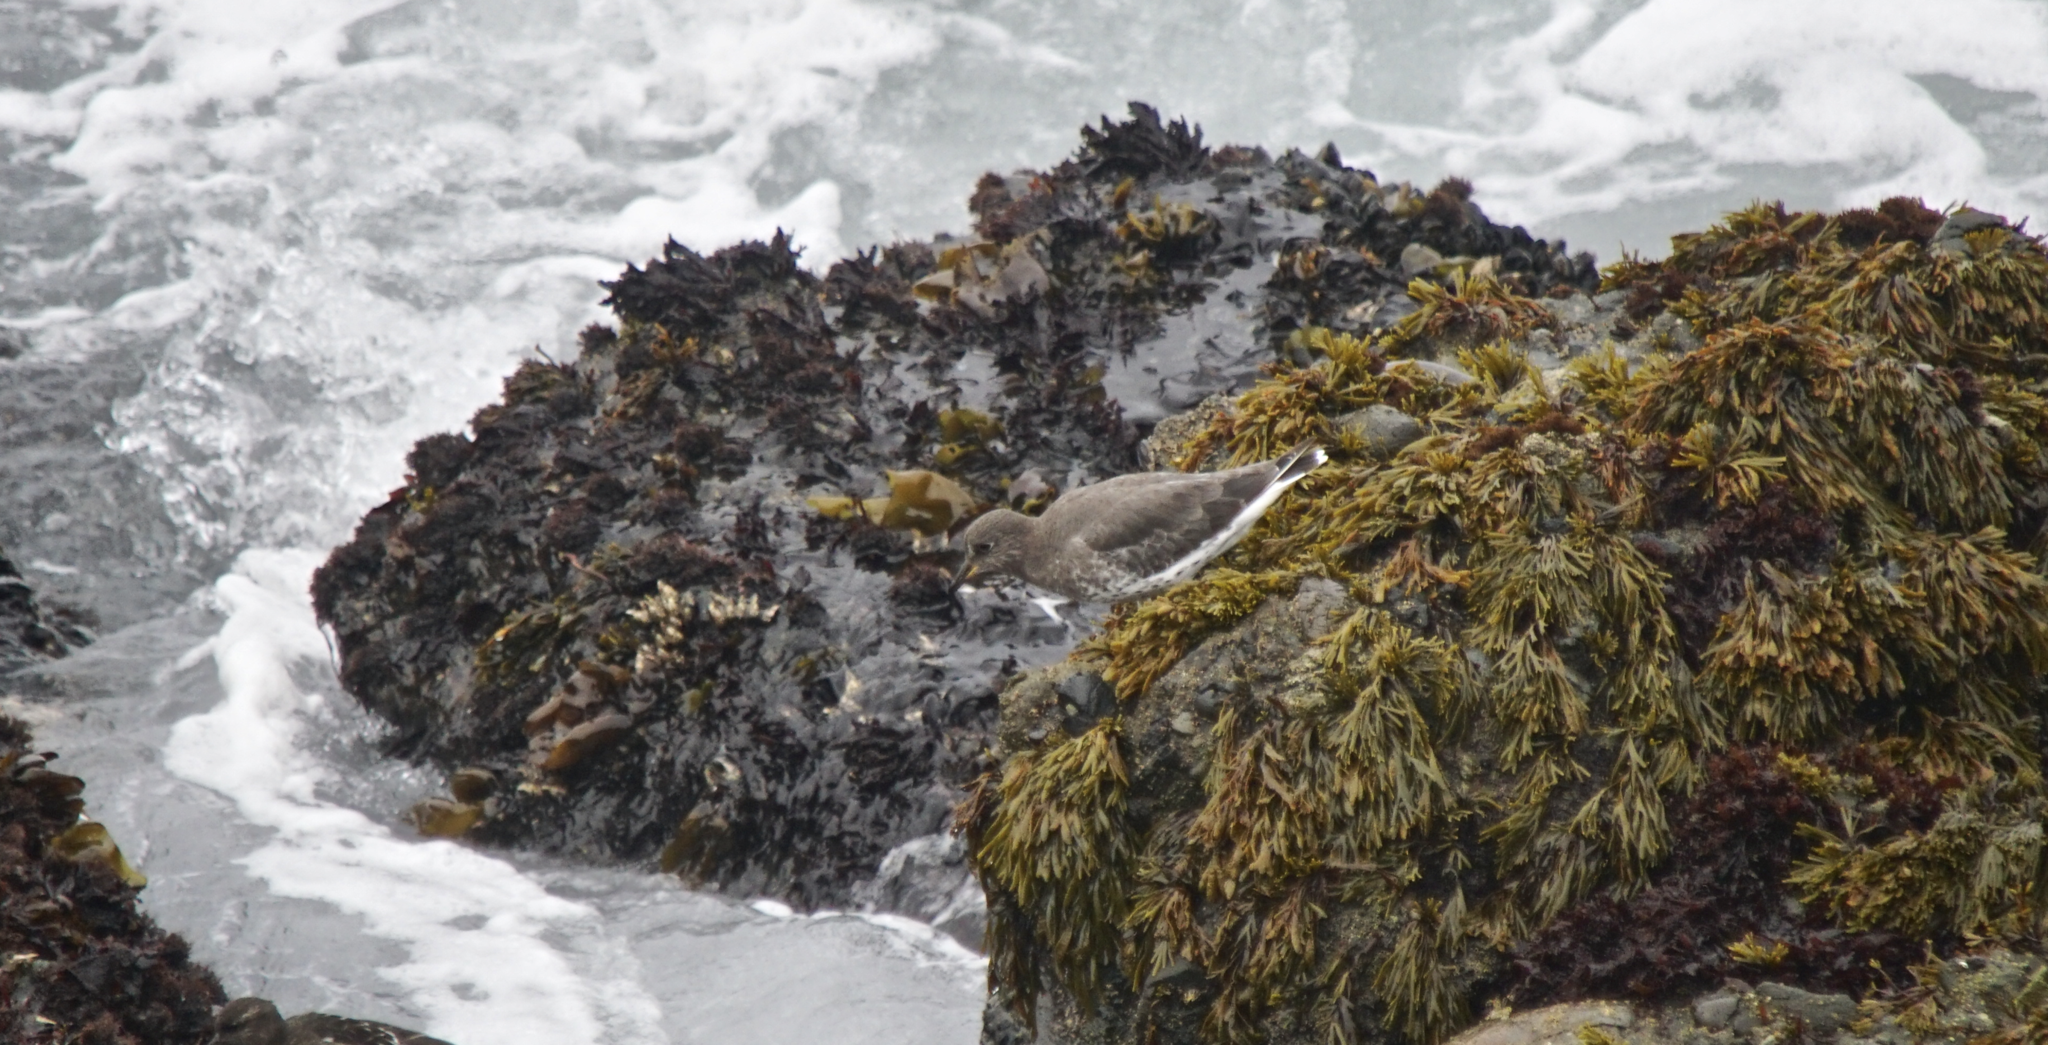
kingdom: Animalia
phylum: Chordata
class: Aves
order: Charadriiformes
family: Scolopacidae
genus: Calidris
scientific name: Calidris virgata
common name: Surfbird
